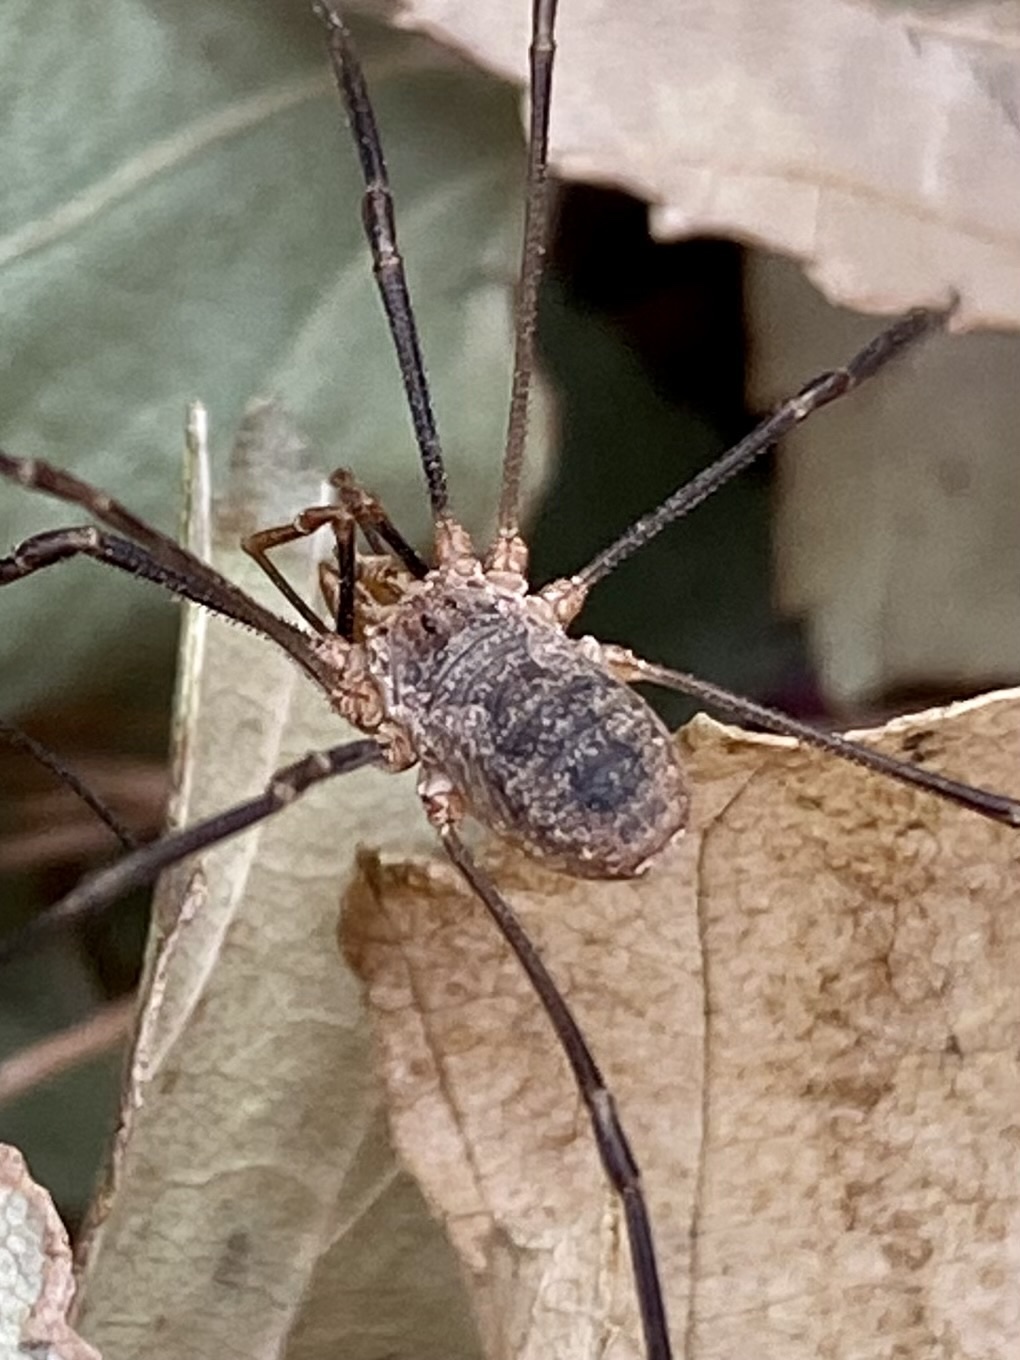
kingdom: Animalia
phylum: Arthropoda
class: Arachnida
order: Opiliones
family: Phalangiidae
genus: Phalangium
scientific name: Phalangium opilio
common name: Daddy longleg
